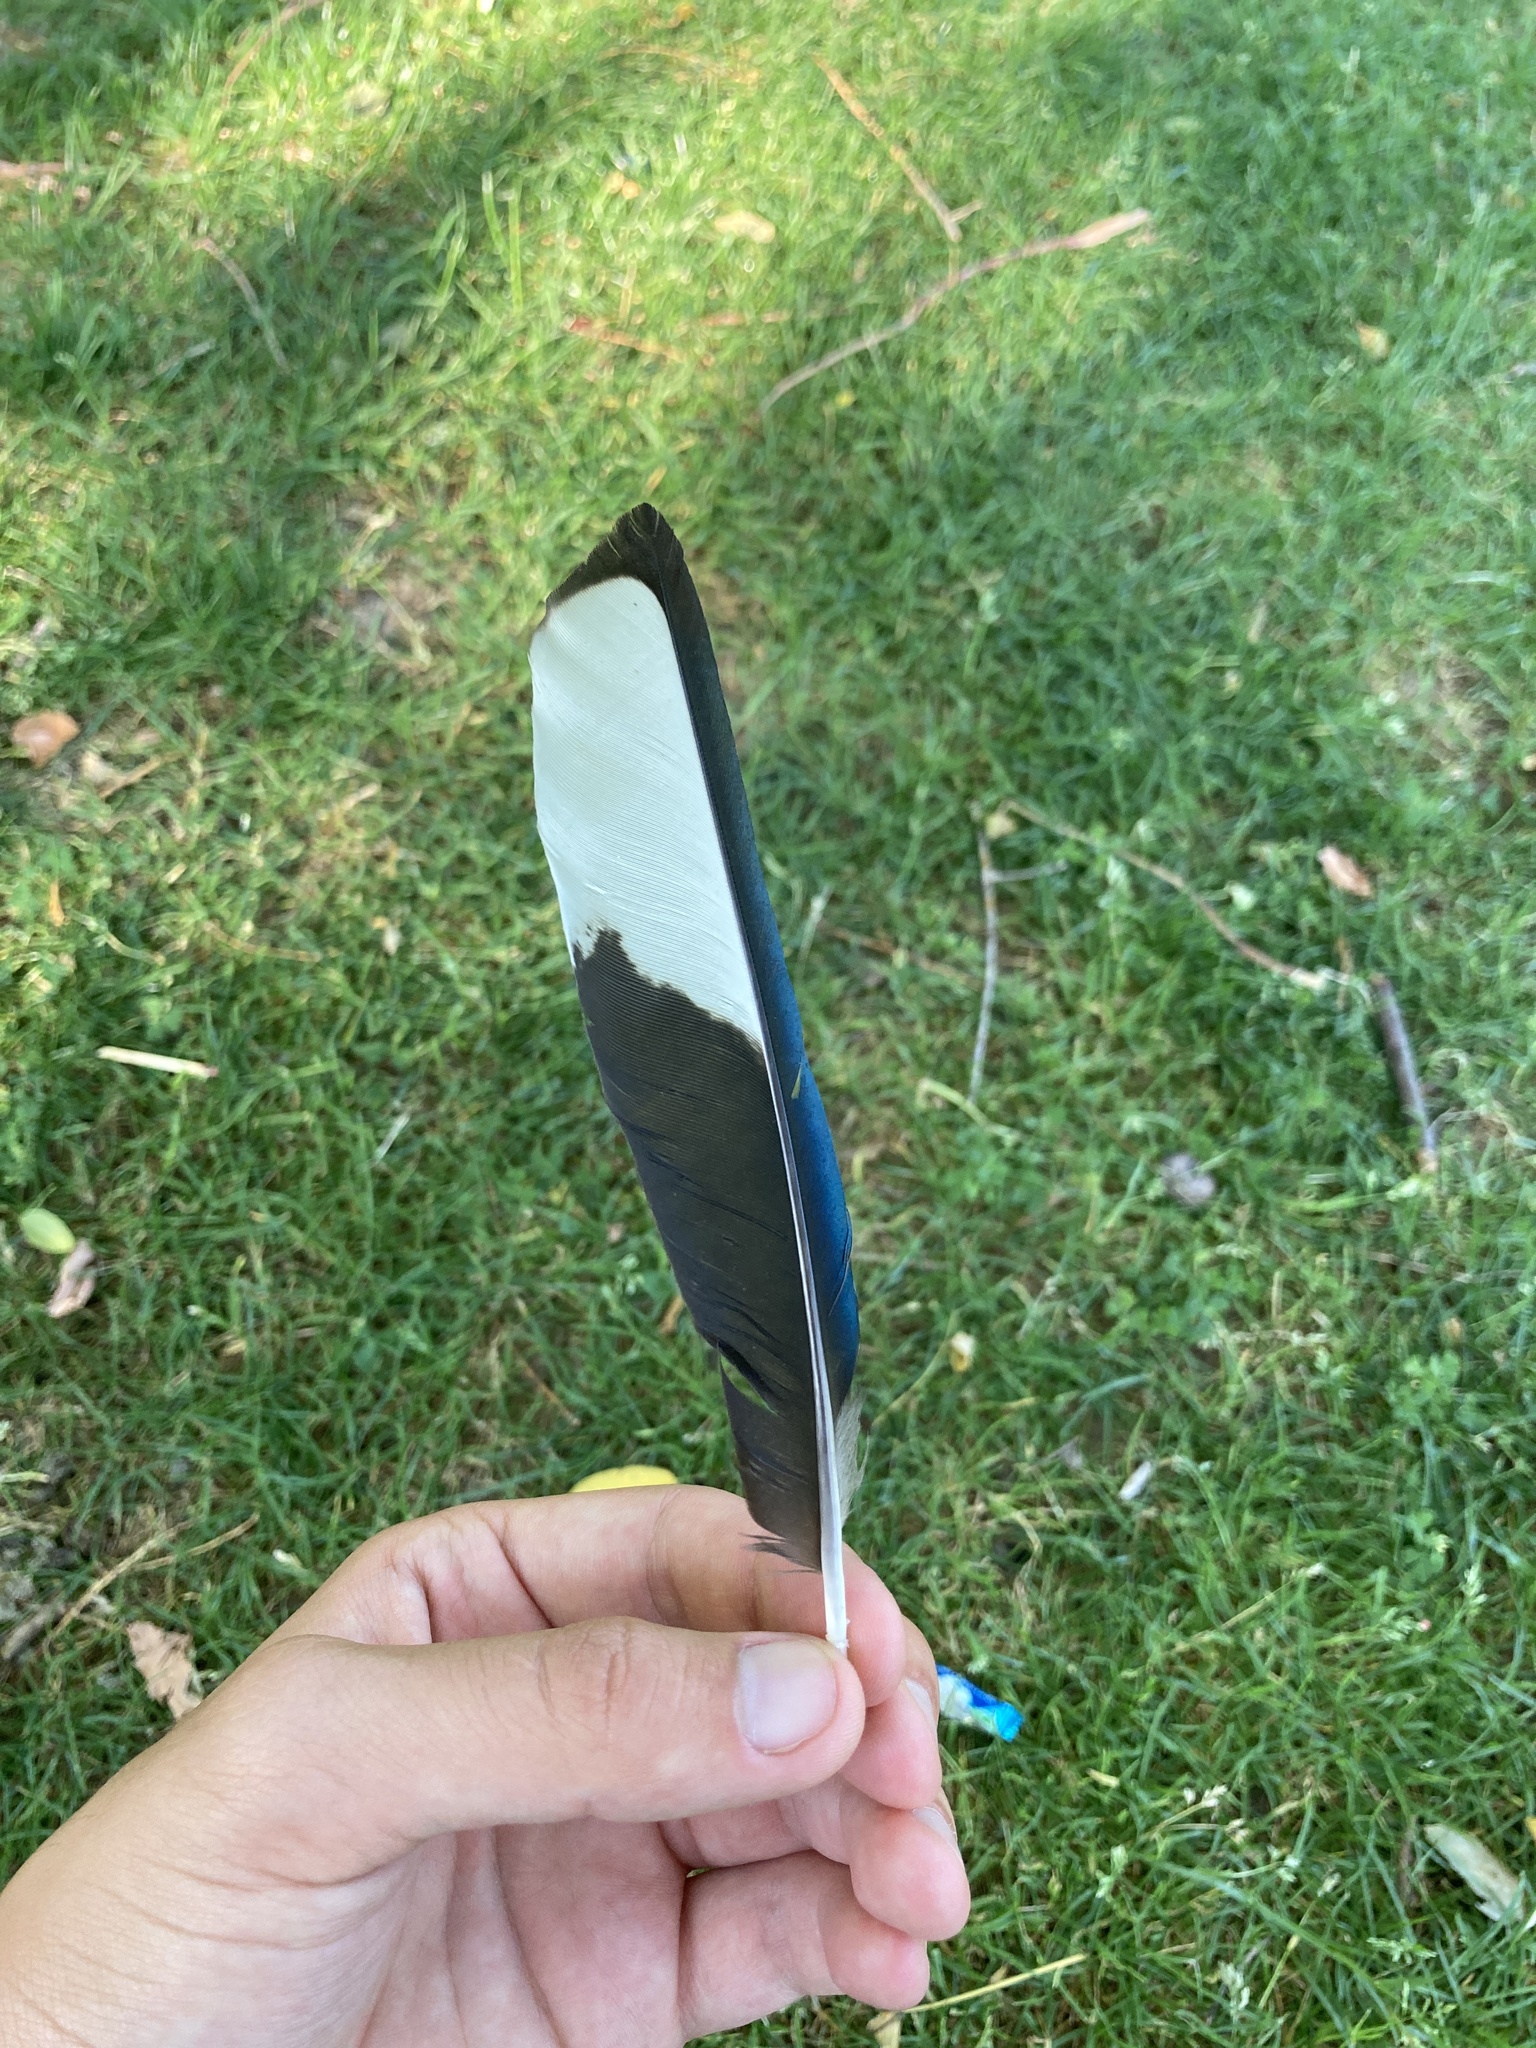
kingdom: Animalia
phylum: Chordata
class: Aves
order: Passeriformes
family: Corvidae
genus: Pica
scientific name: Pica pica
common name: Eurasian magpie
